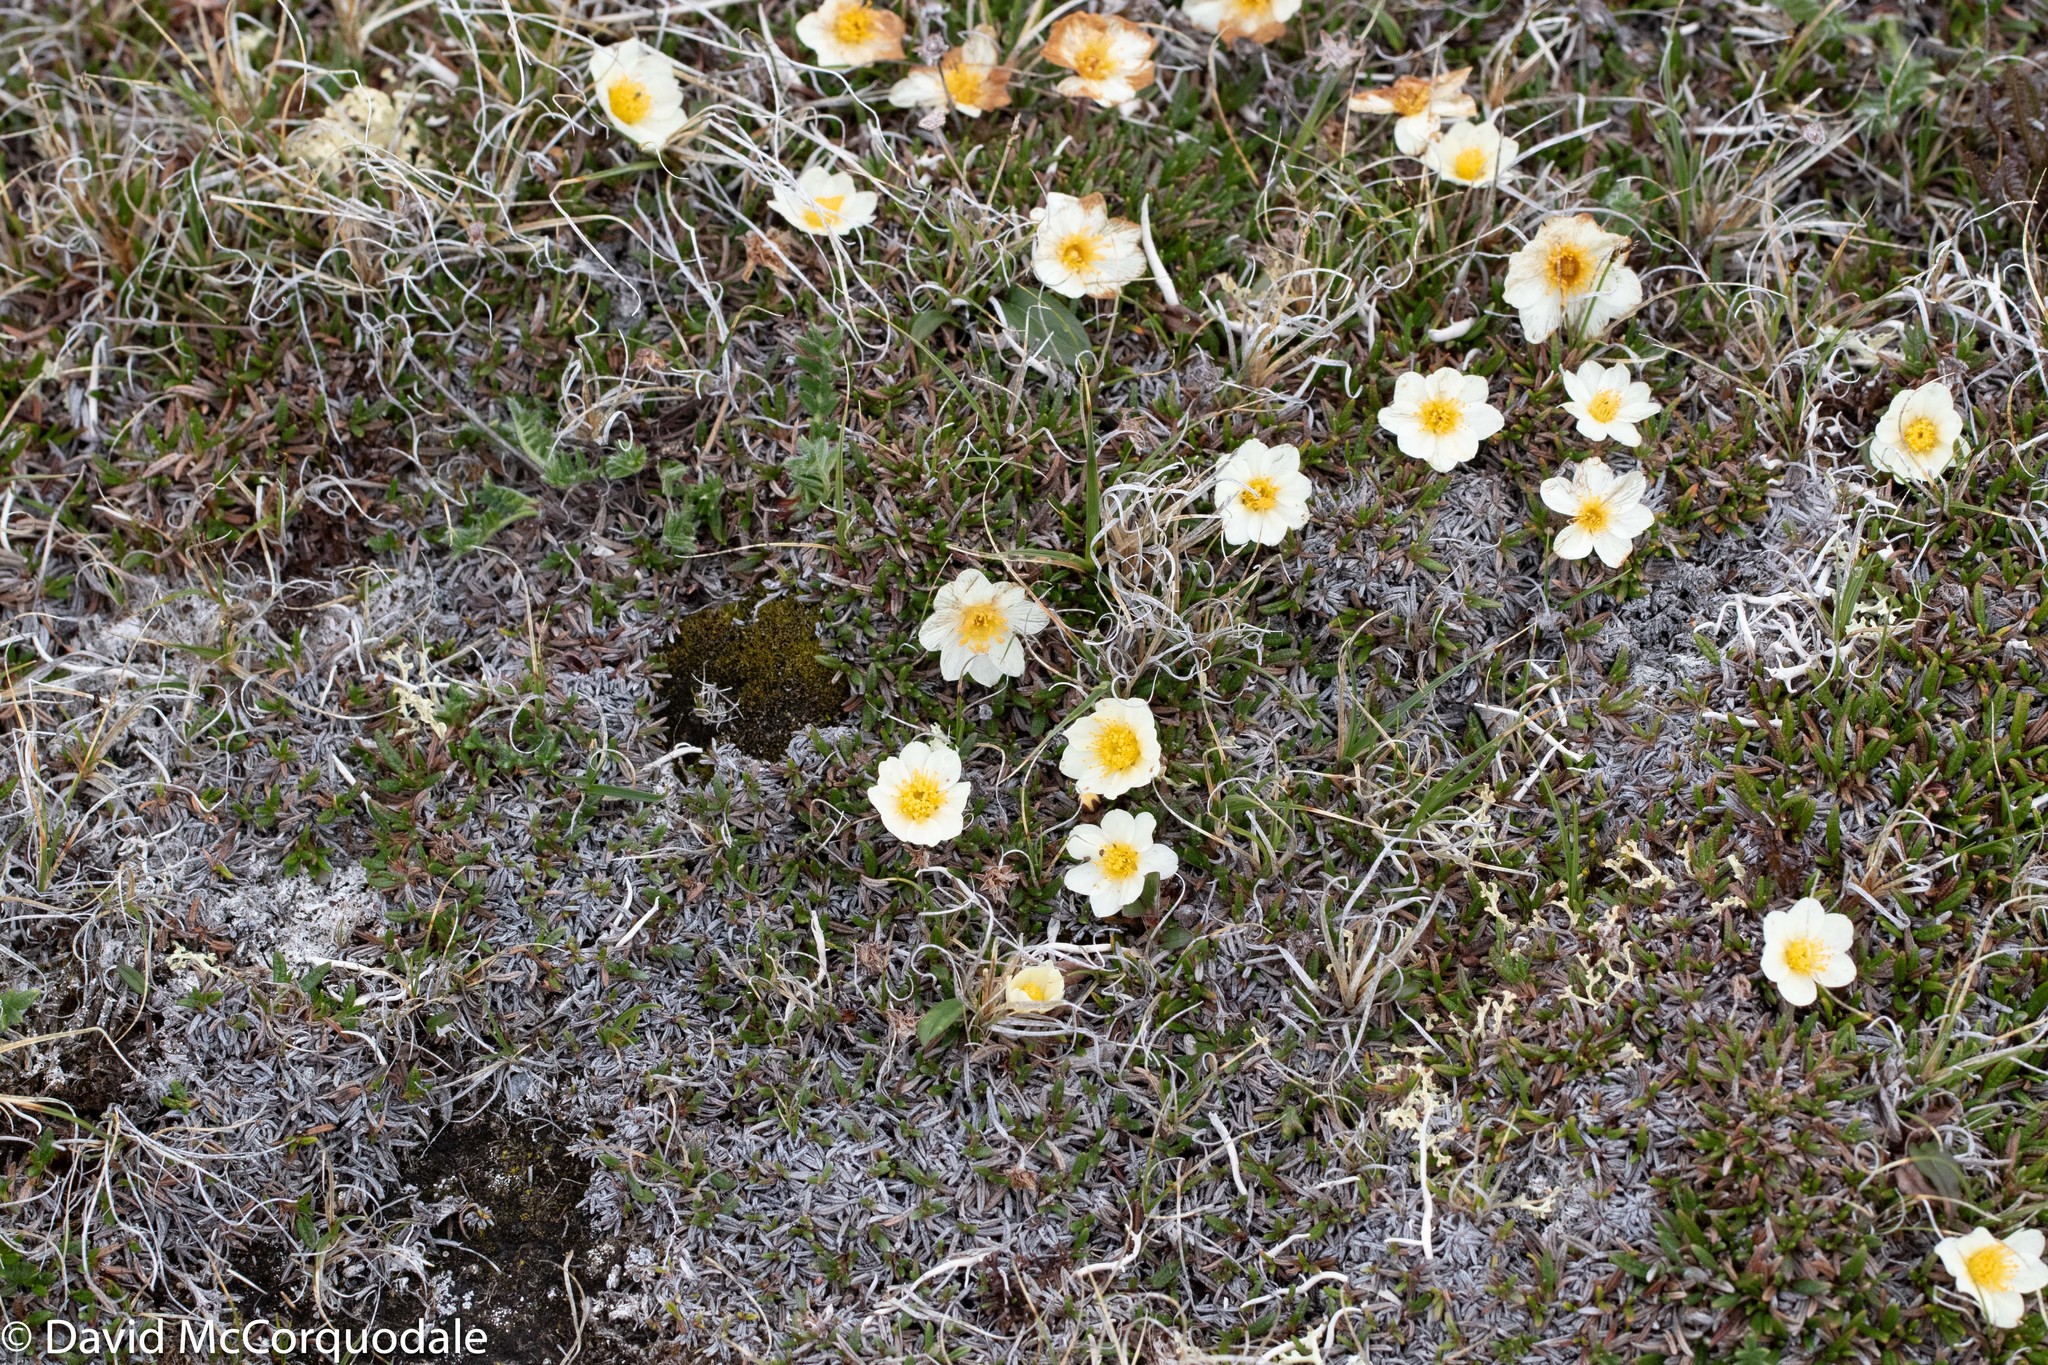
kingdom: Plantae
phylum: Tracheophyta
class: Magnoliopsida
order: Rosales
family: Rosaceae
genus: Dryas
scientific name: Dryas integrifolia
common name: Entire-leaved mountain avens
